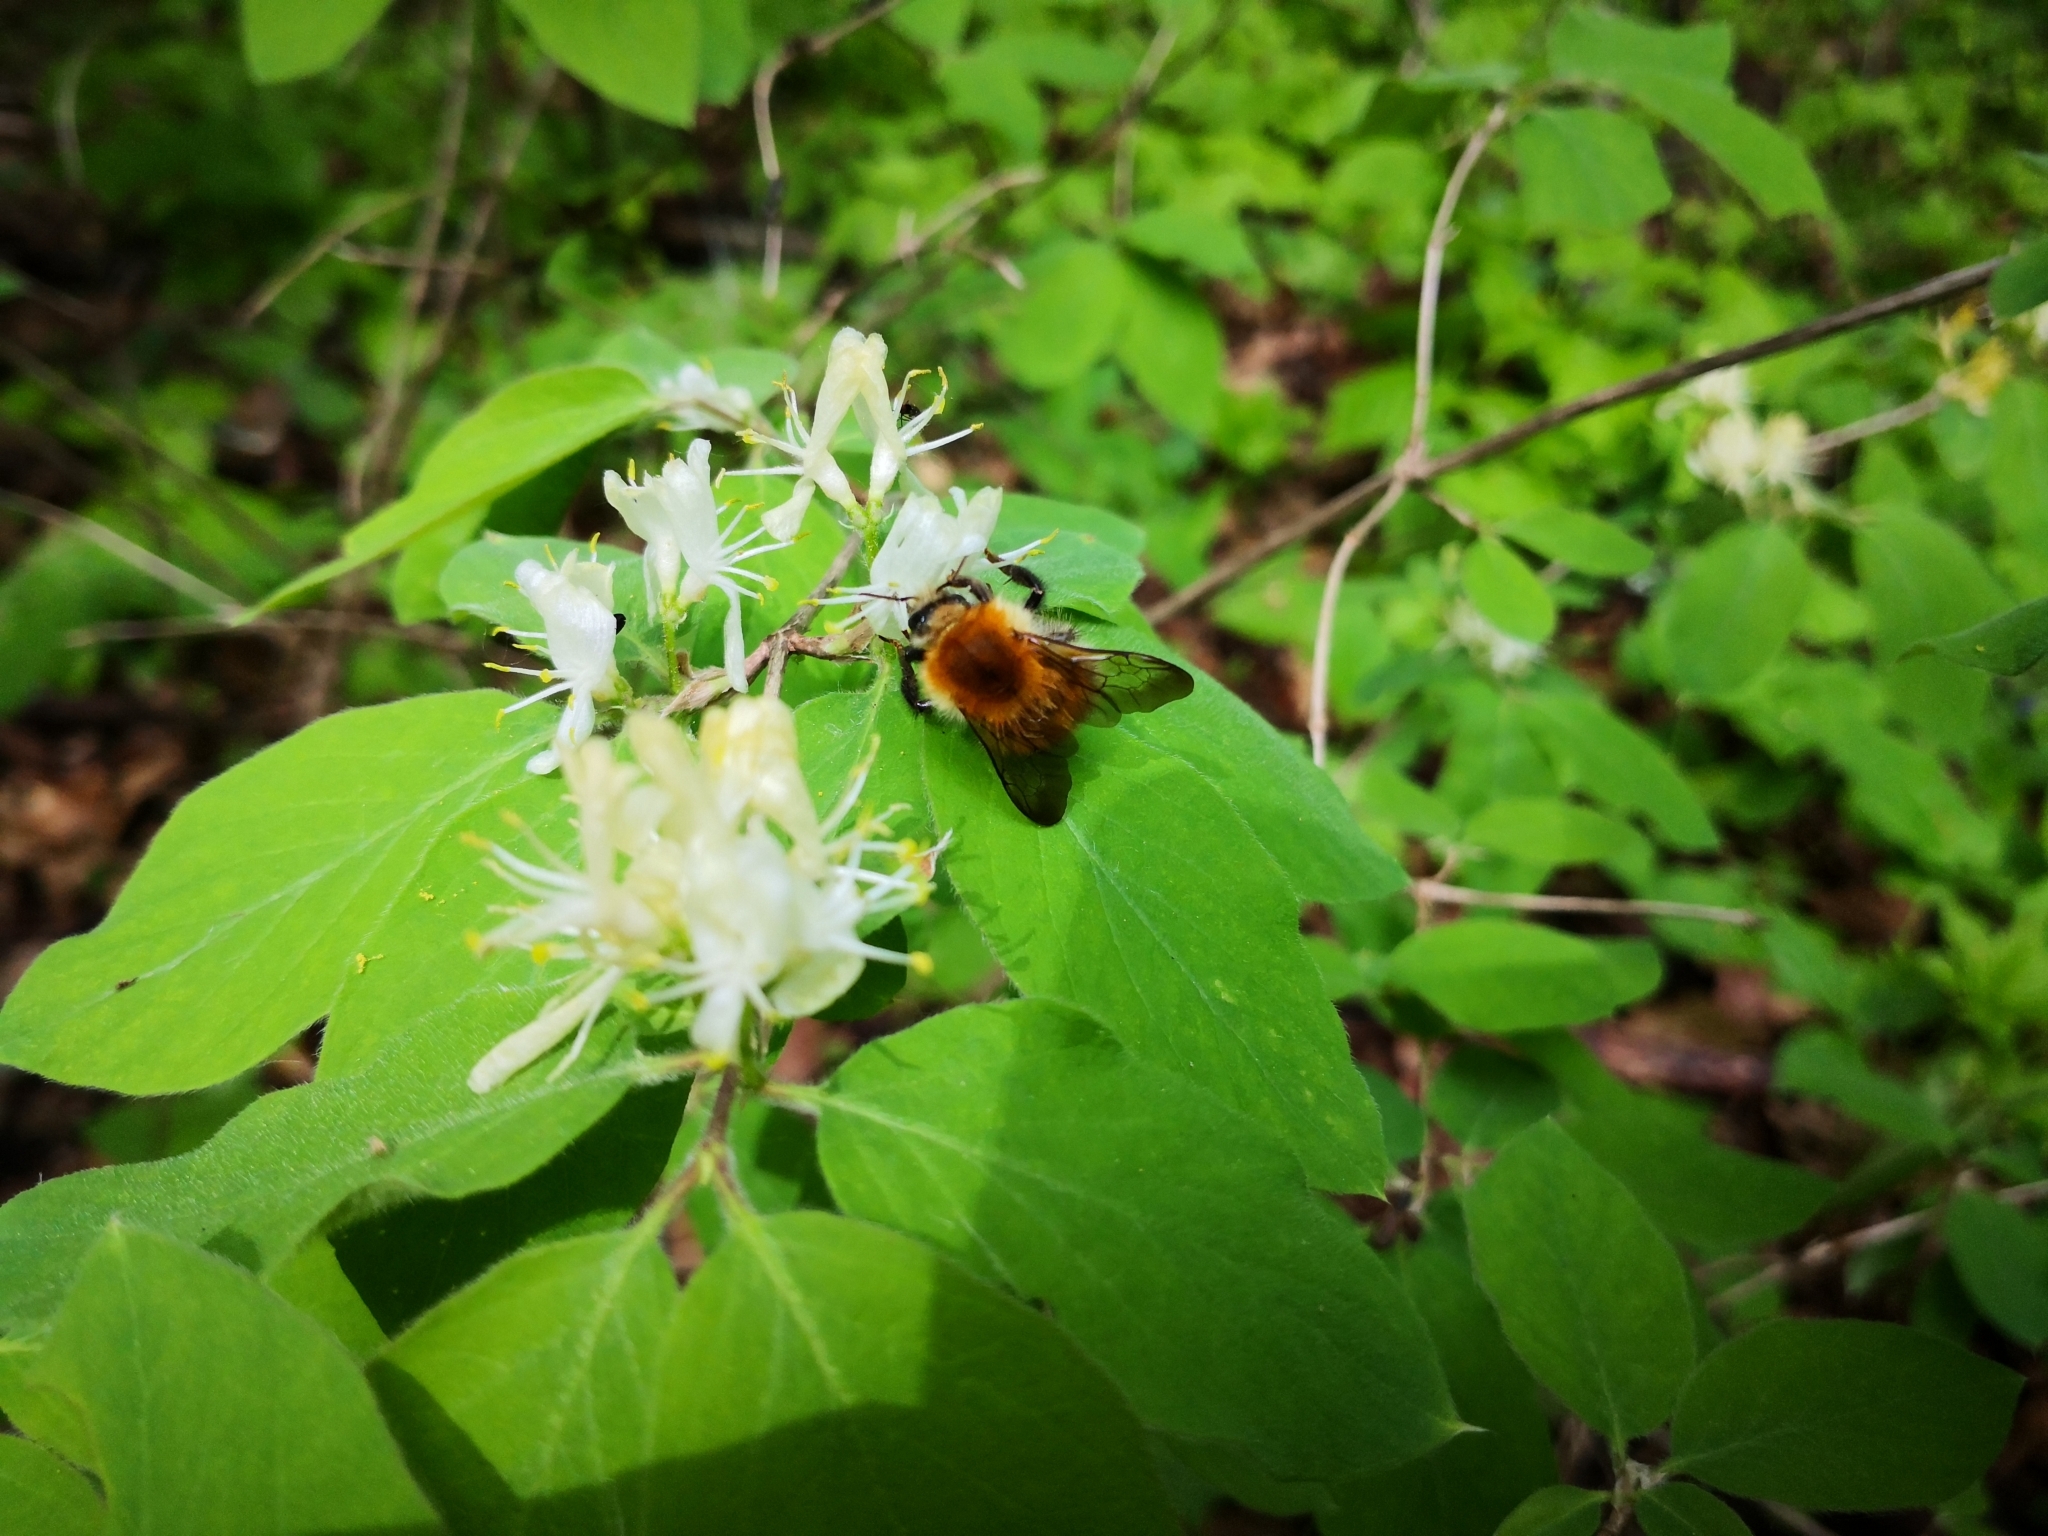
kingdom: Plantae
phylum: Tracheophyta
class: Magnoliopsida
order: Dipsacales
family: Caprifoliaceae
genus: Lonicera
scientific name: Lonicera xylosteum
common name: Fly honeysuckle
